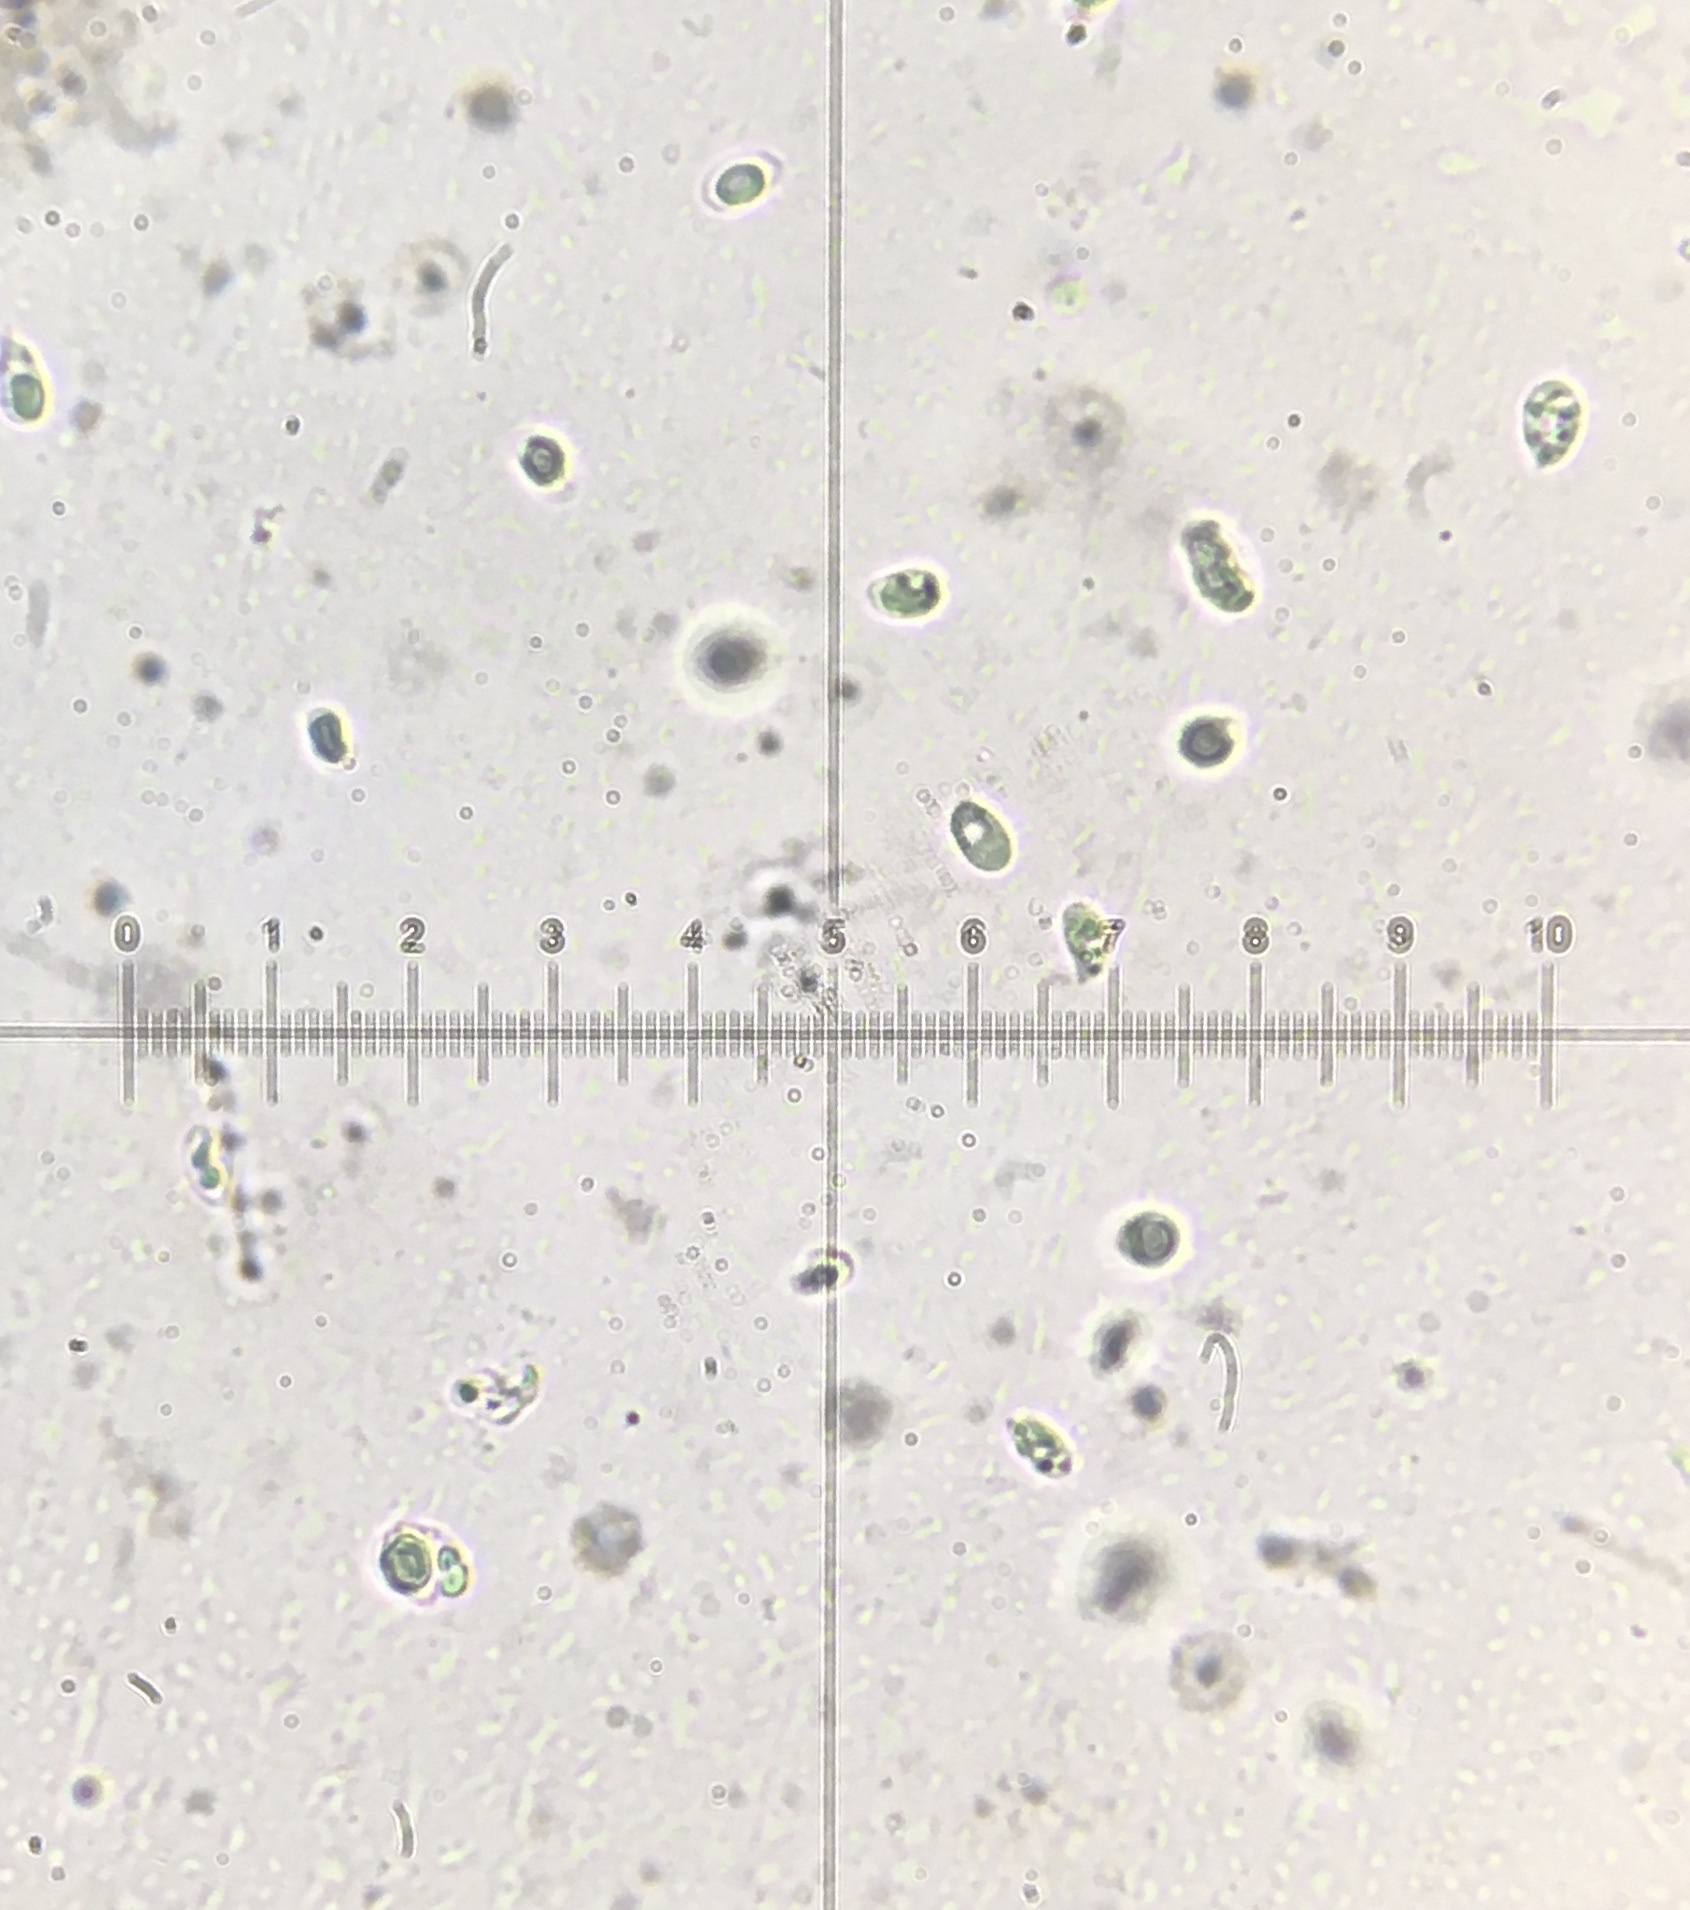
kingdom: Fungi
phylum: Basidiomycota
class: Agaricomycetes
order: Agaricales
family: Tricholomataceae
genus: Clitocybe
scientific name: Clitocybe nebularis
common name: Clouded agaric
